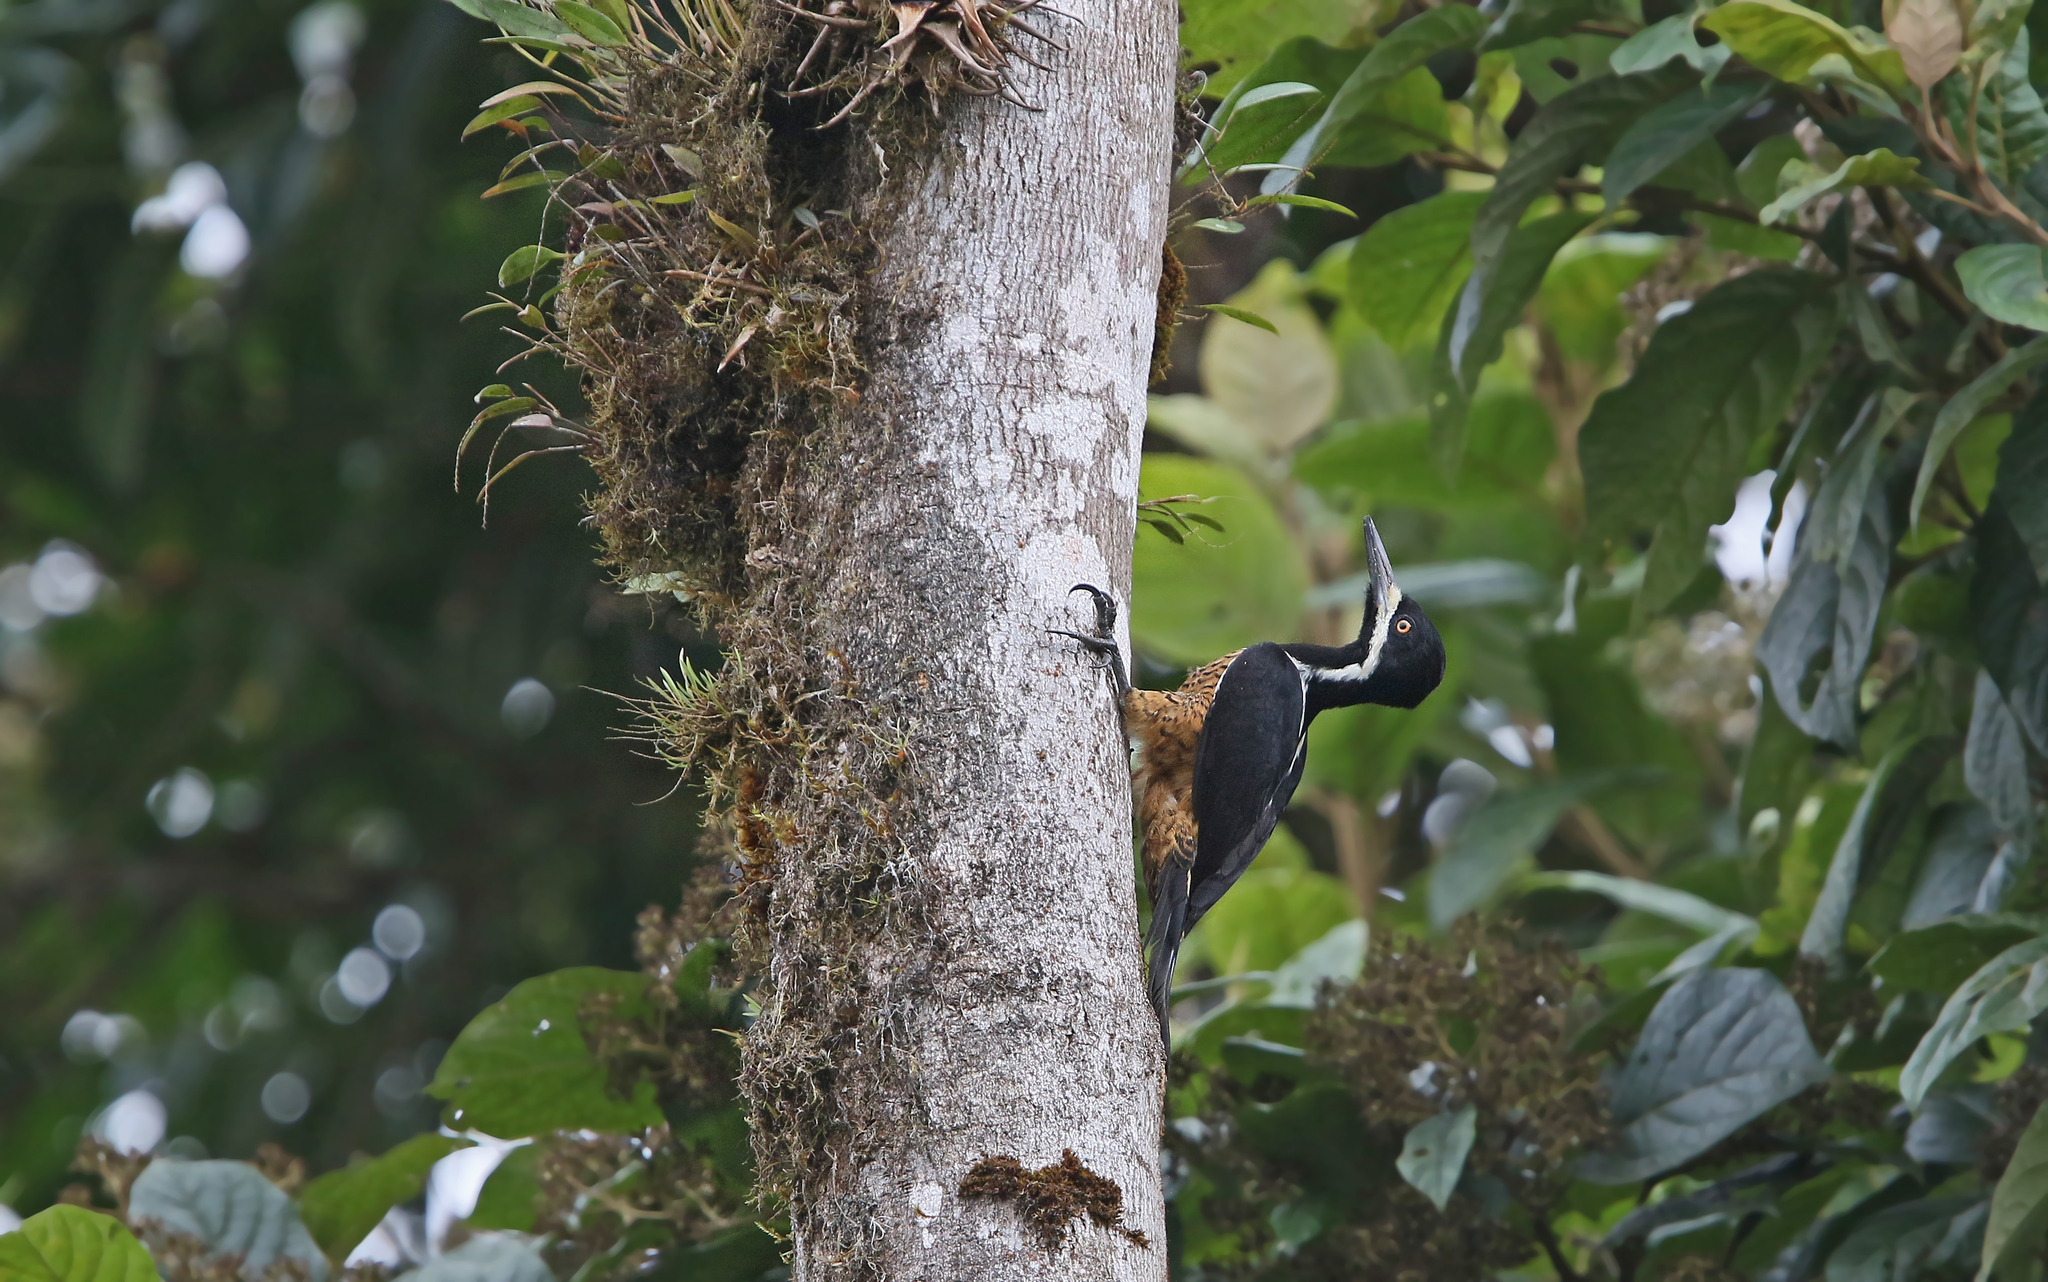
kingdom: Animalia
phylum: Chordata
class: Aves
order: Piciformes
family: Picidae
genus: Campephilus
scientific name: Campephilus pollens
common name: Powerful woodpecker
